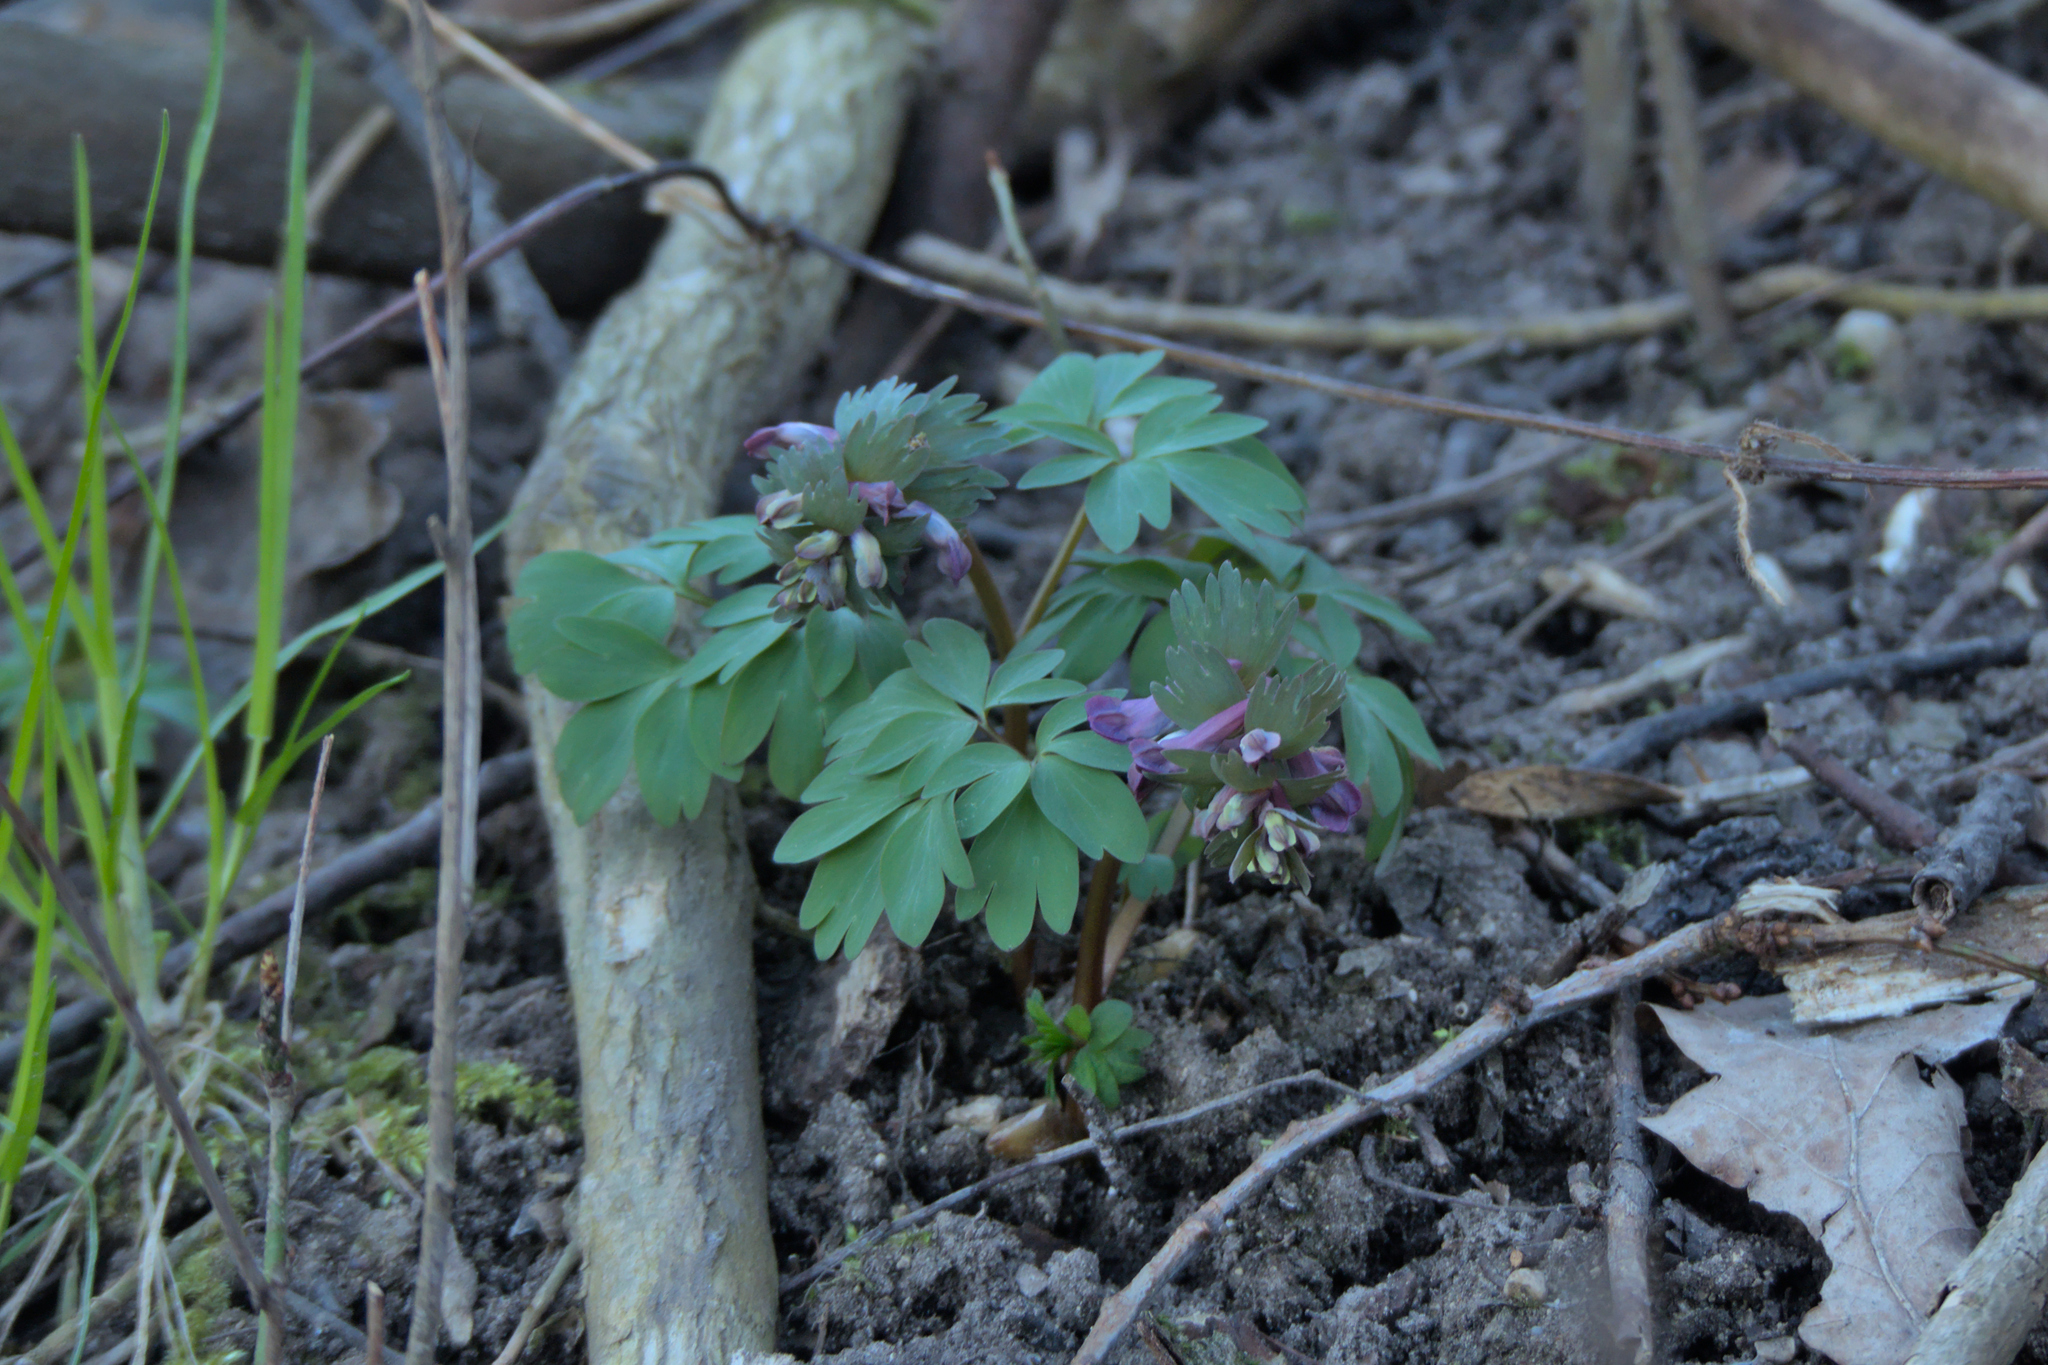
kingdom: Plantae
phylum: Tracheophyta
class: Magnoliopsida
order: Ranunculales
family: Papaveraceae
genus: Corydalis
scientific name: Corydalis solida
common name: Bird-in-a-bush
